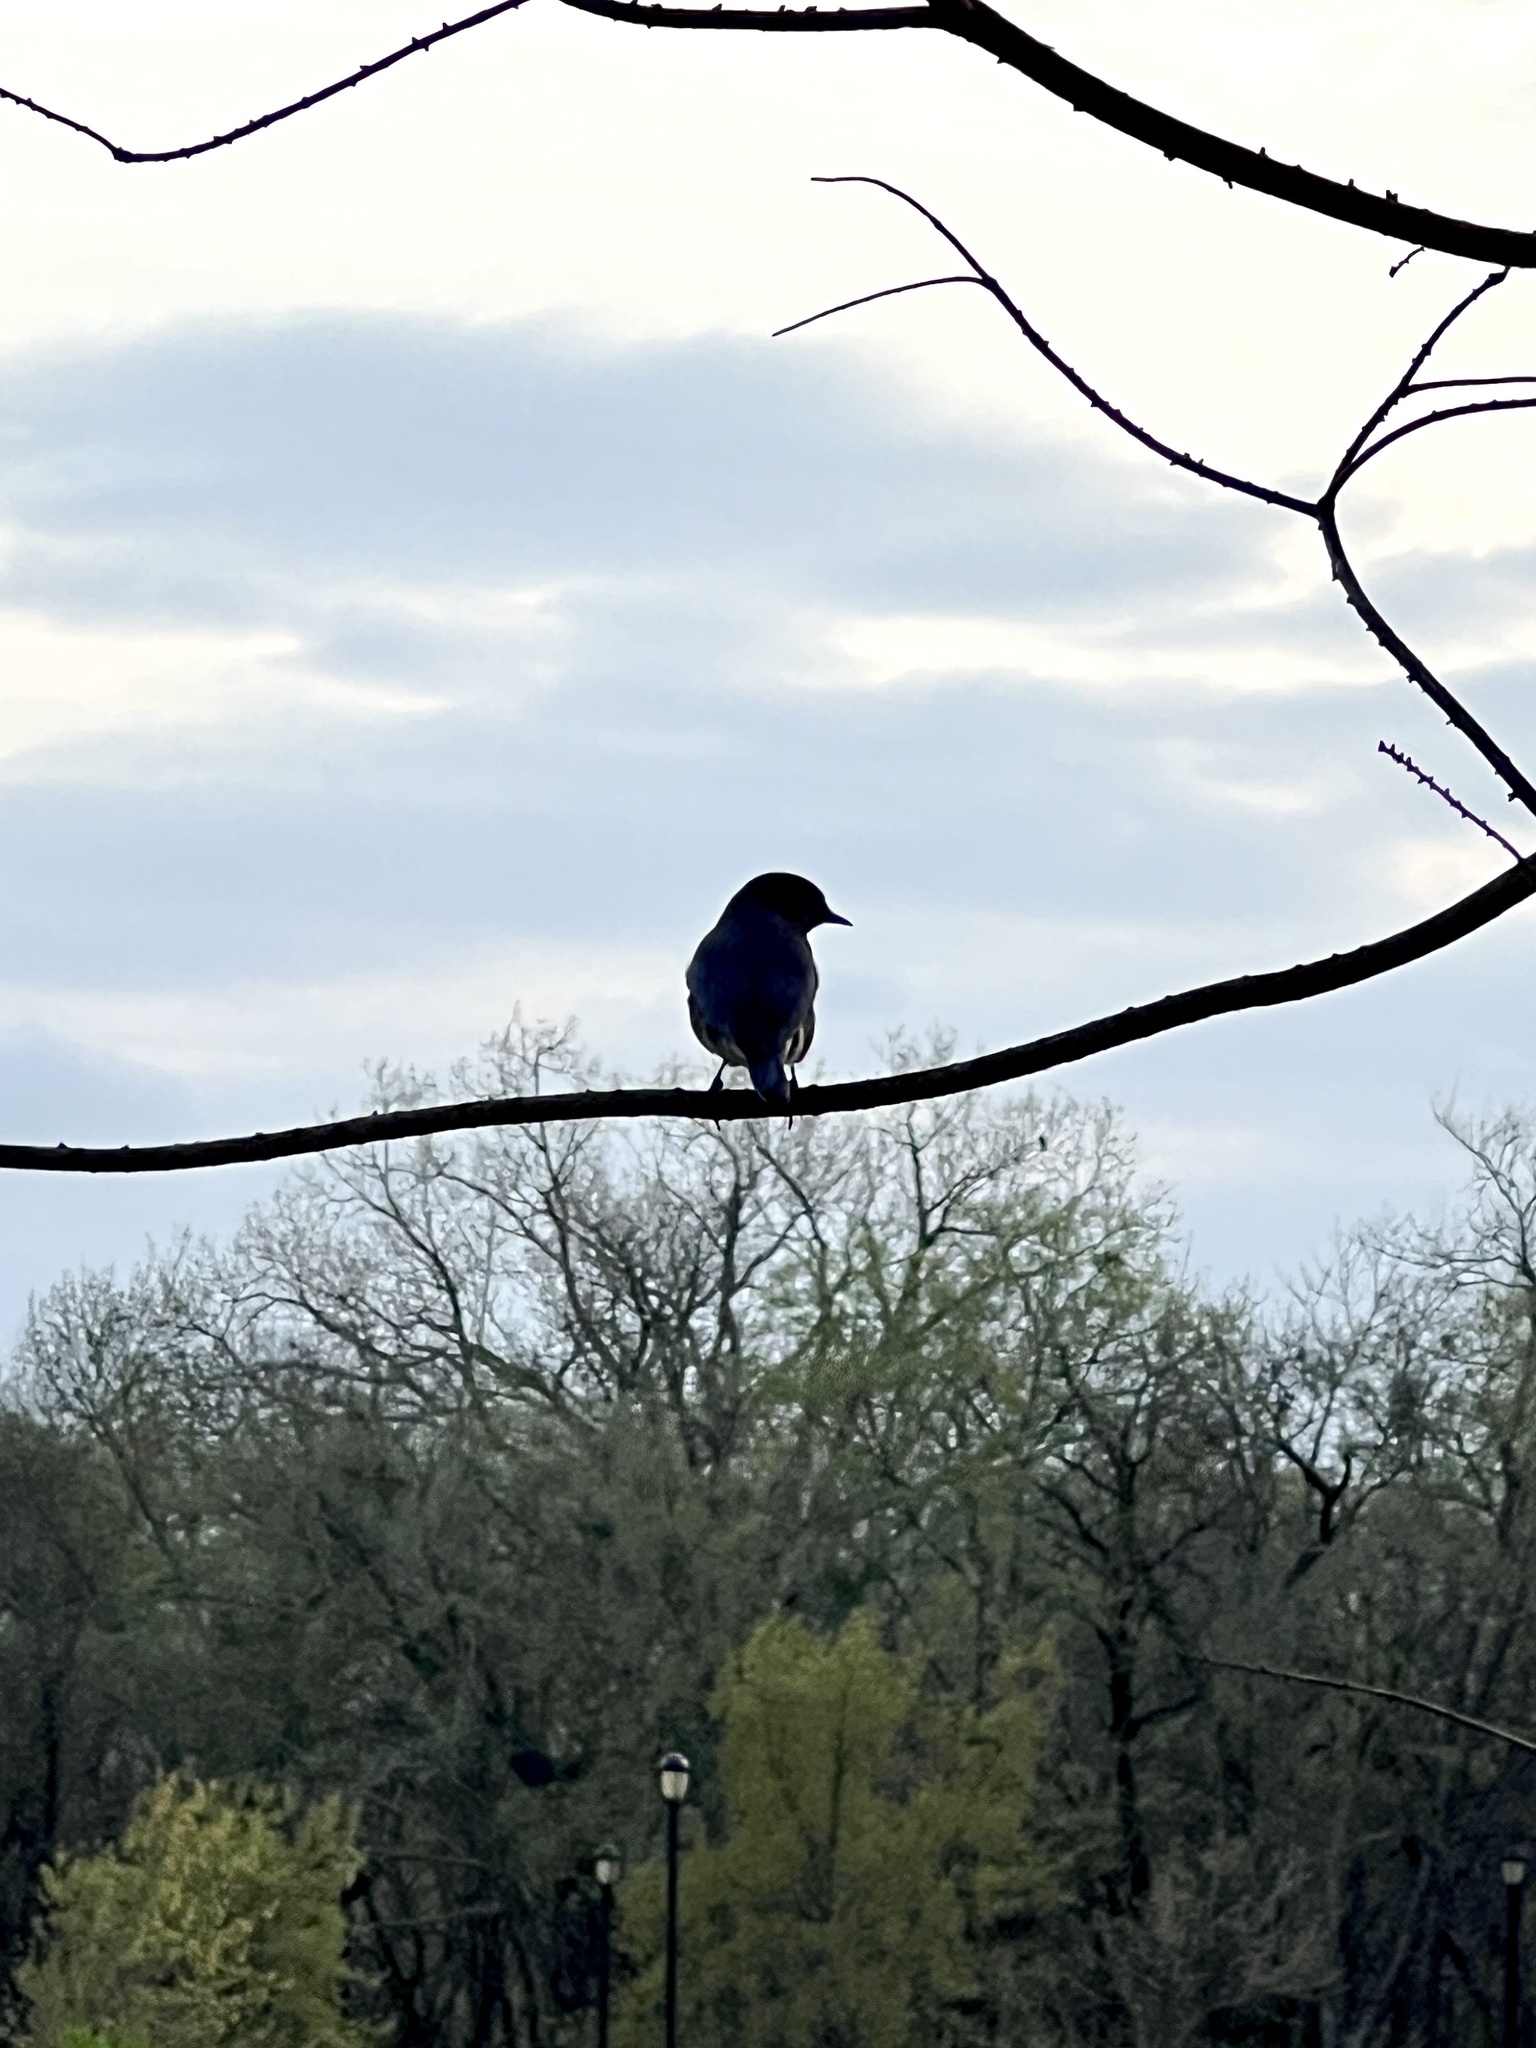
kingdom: Animalia
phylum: Chordata
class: Aves
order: Passeriformes
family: Turdidae
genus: Sialia
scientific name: Sialia sialis
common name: Eastern bluebird
